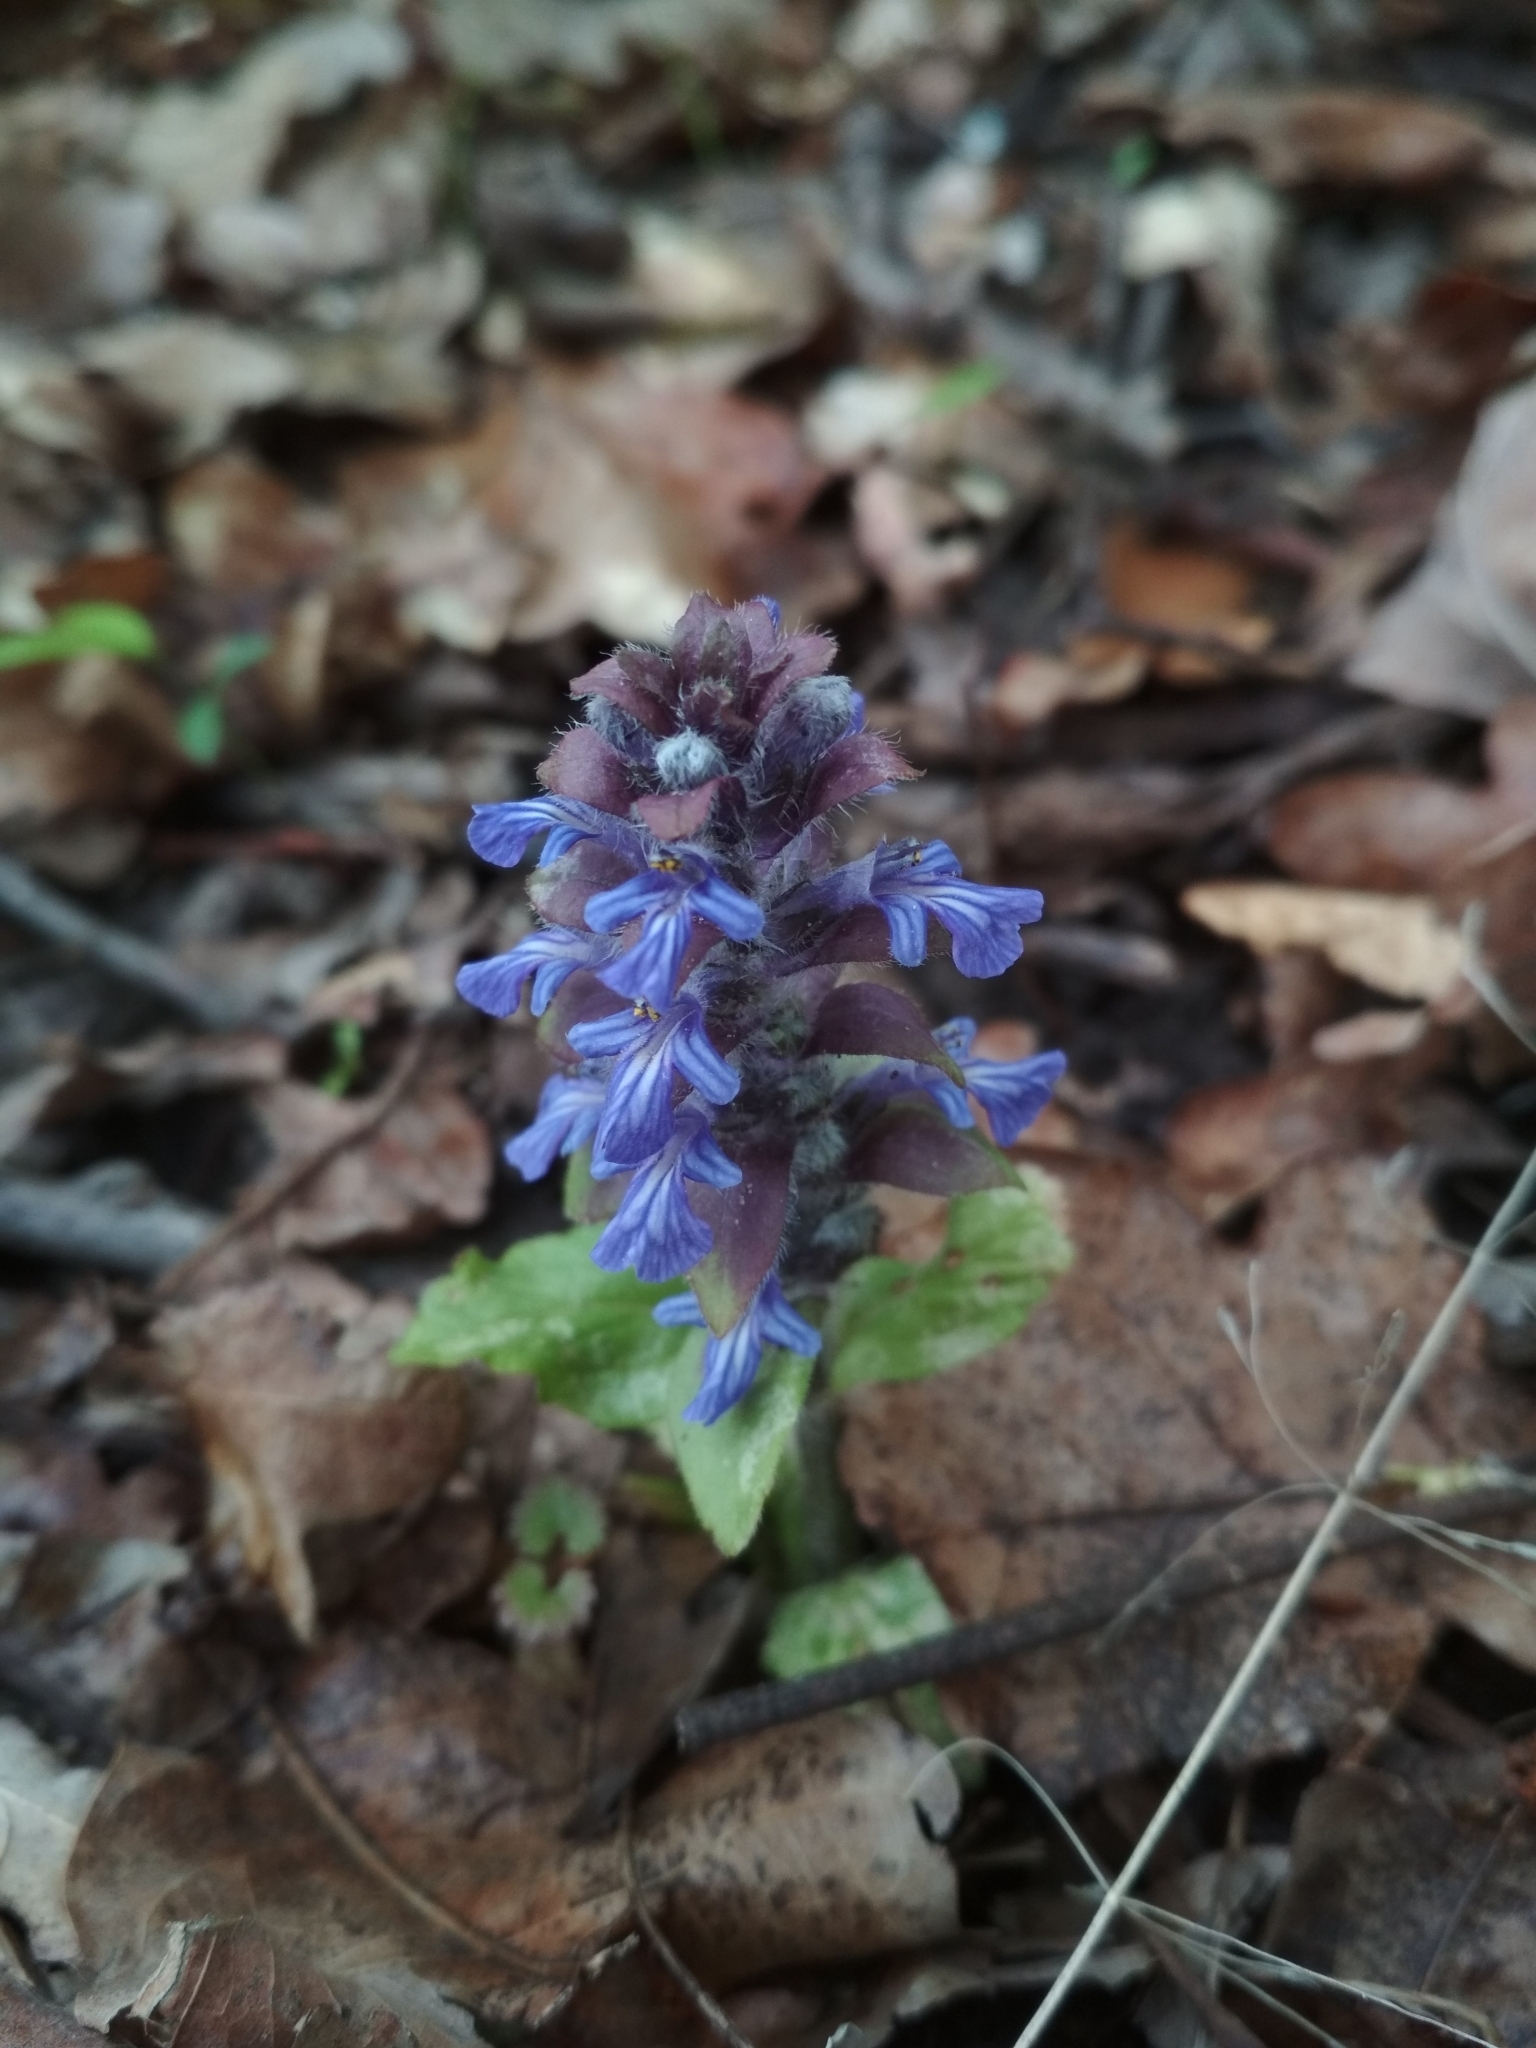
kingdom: Plantae
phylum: Tracheophyta
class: Magnoliopsida
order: Lamiales
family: Lamiaceae
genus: Ajuga
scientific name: Ajuga reptans
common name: Bugle
